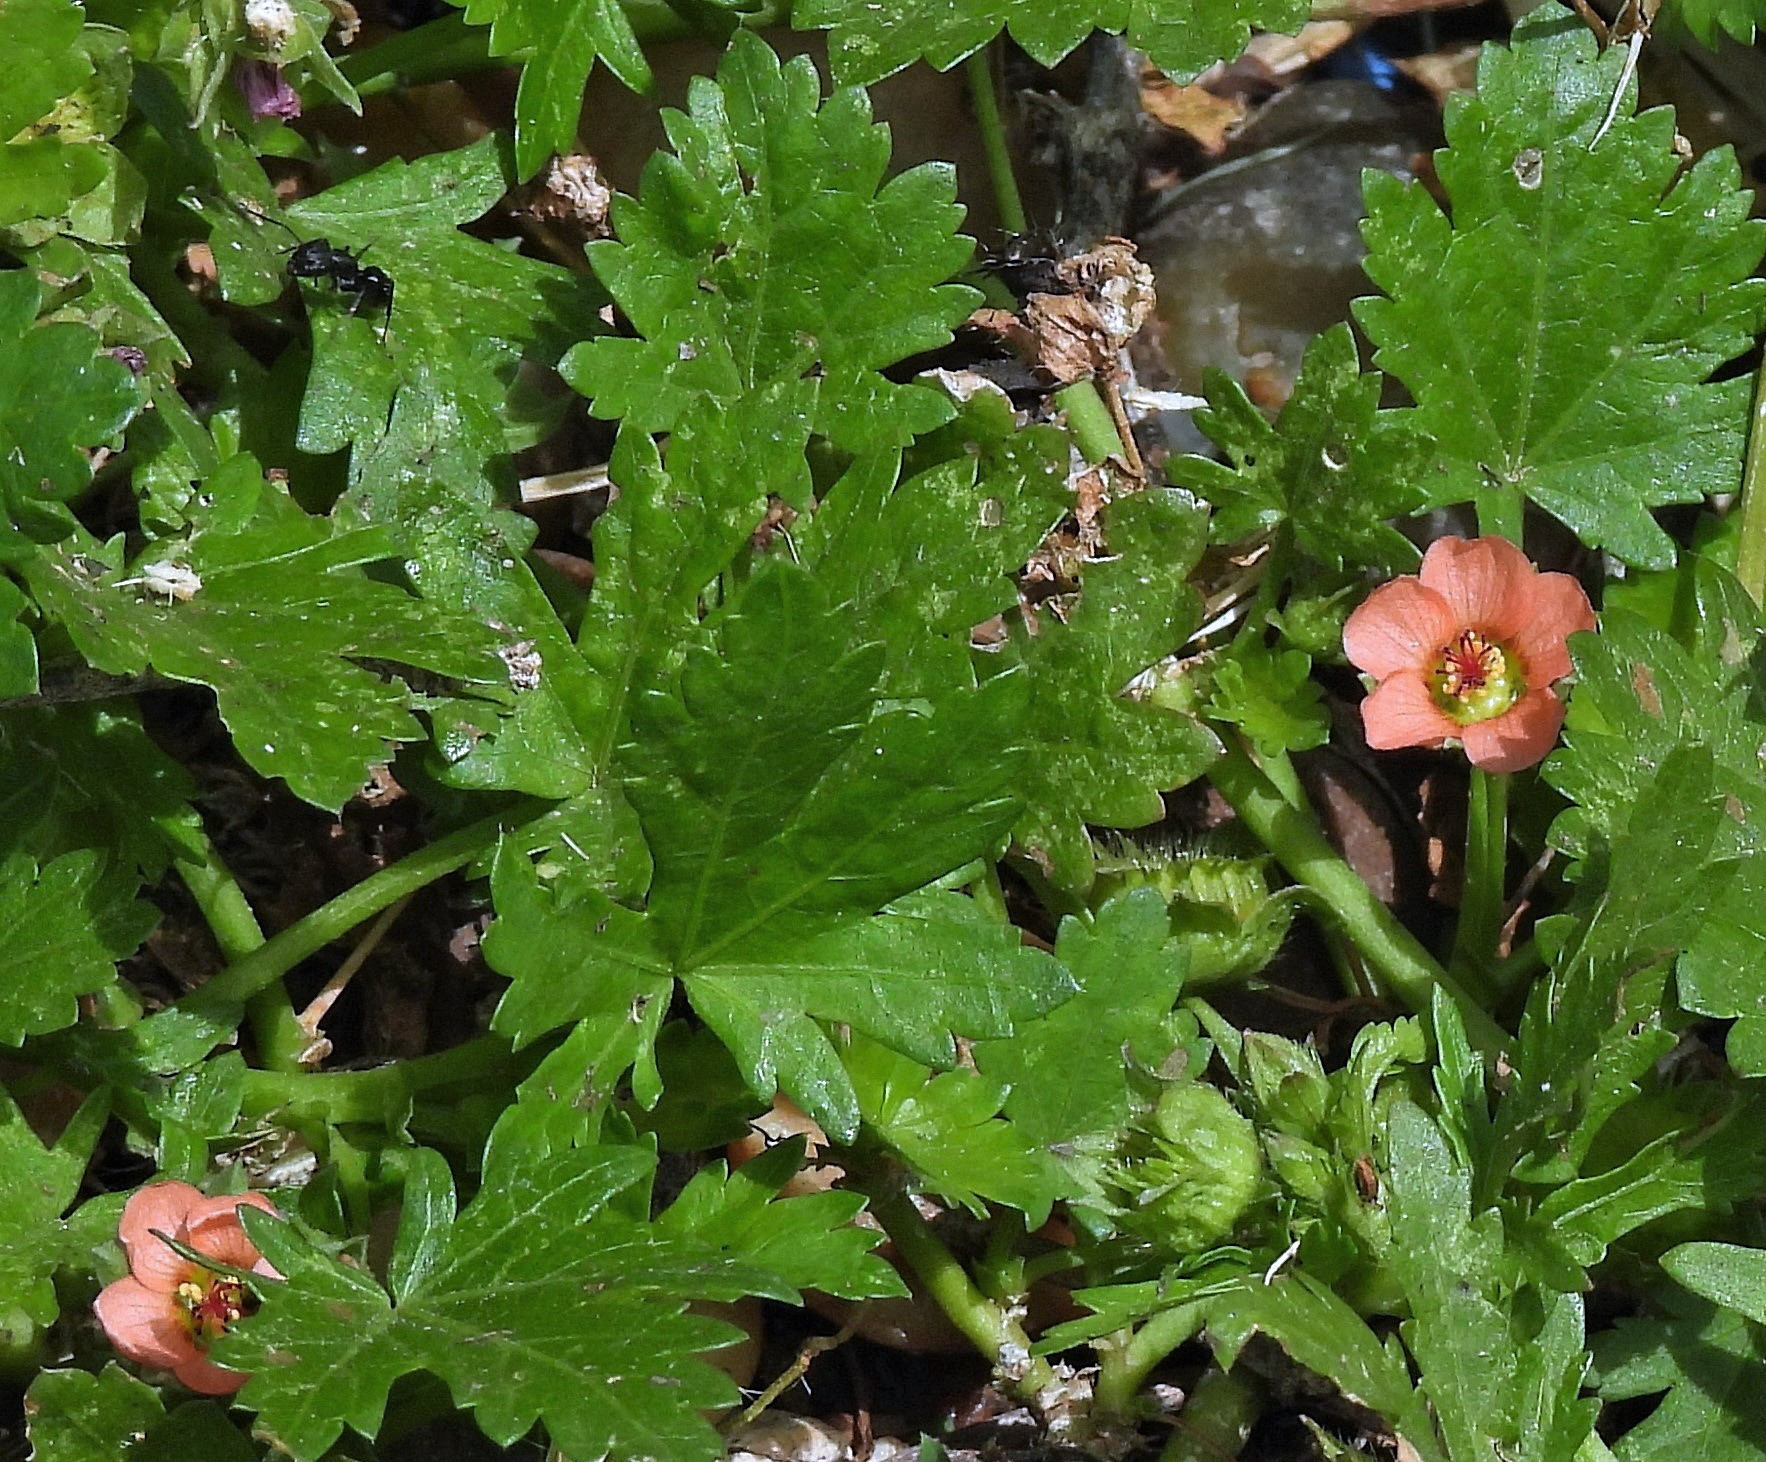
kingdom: Plantae
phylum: Tracheophyta
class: Magnoliopsida
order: Malvales
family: Malvaceae
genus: Modiola
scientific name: Modiola caroliniana
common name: Carolina bristlemallow
